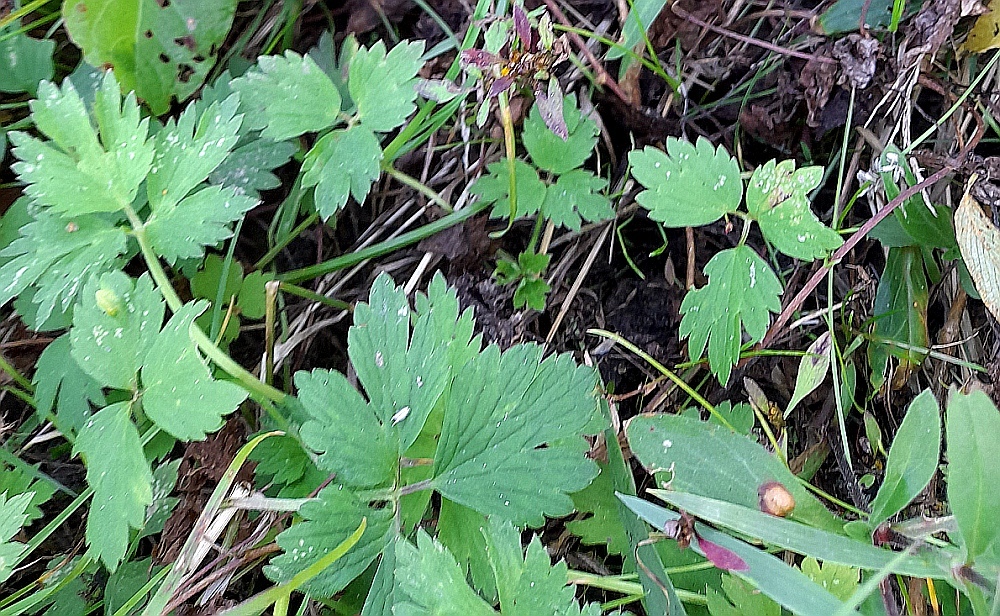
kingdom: Plantae
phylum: Tracheophyta
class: Magnoliopsida
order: Ranunculales
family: Ranunculaceae
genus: Ranunculus
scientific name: Ranunculus repens
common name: Creeping buttercup
